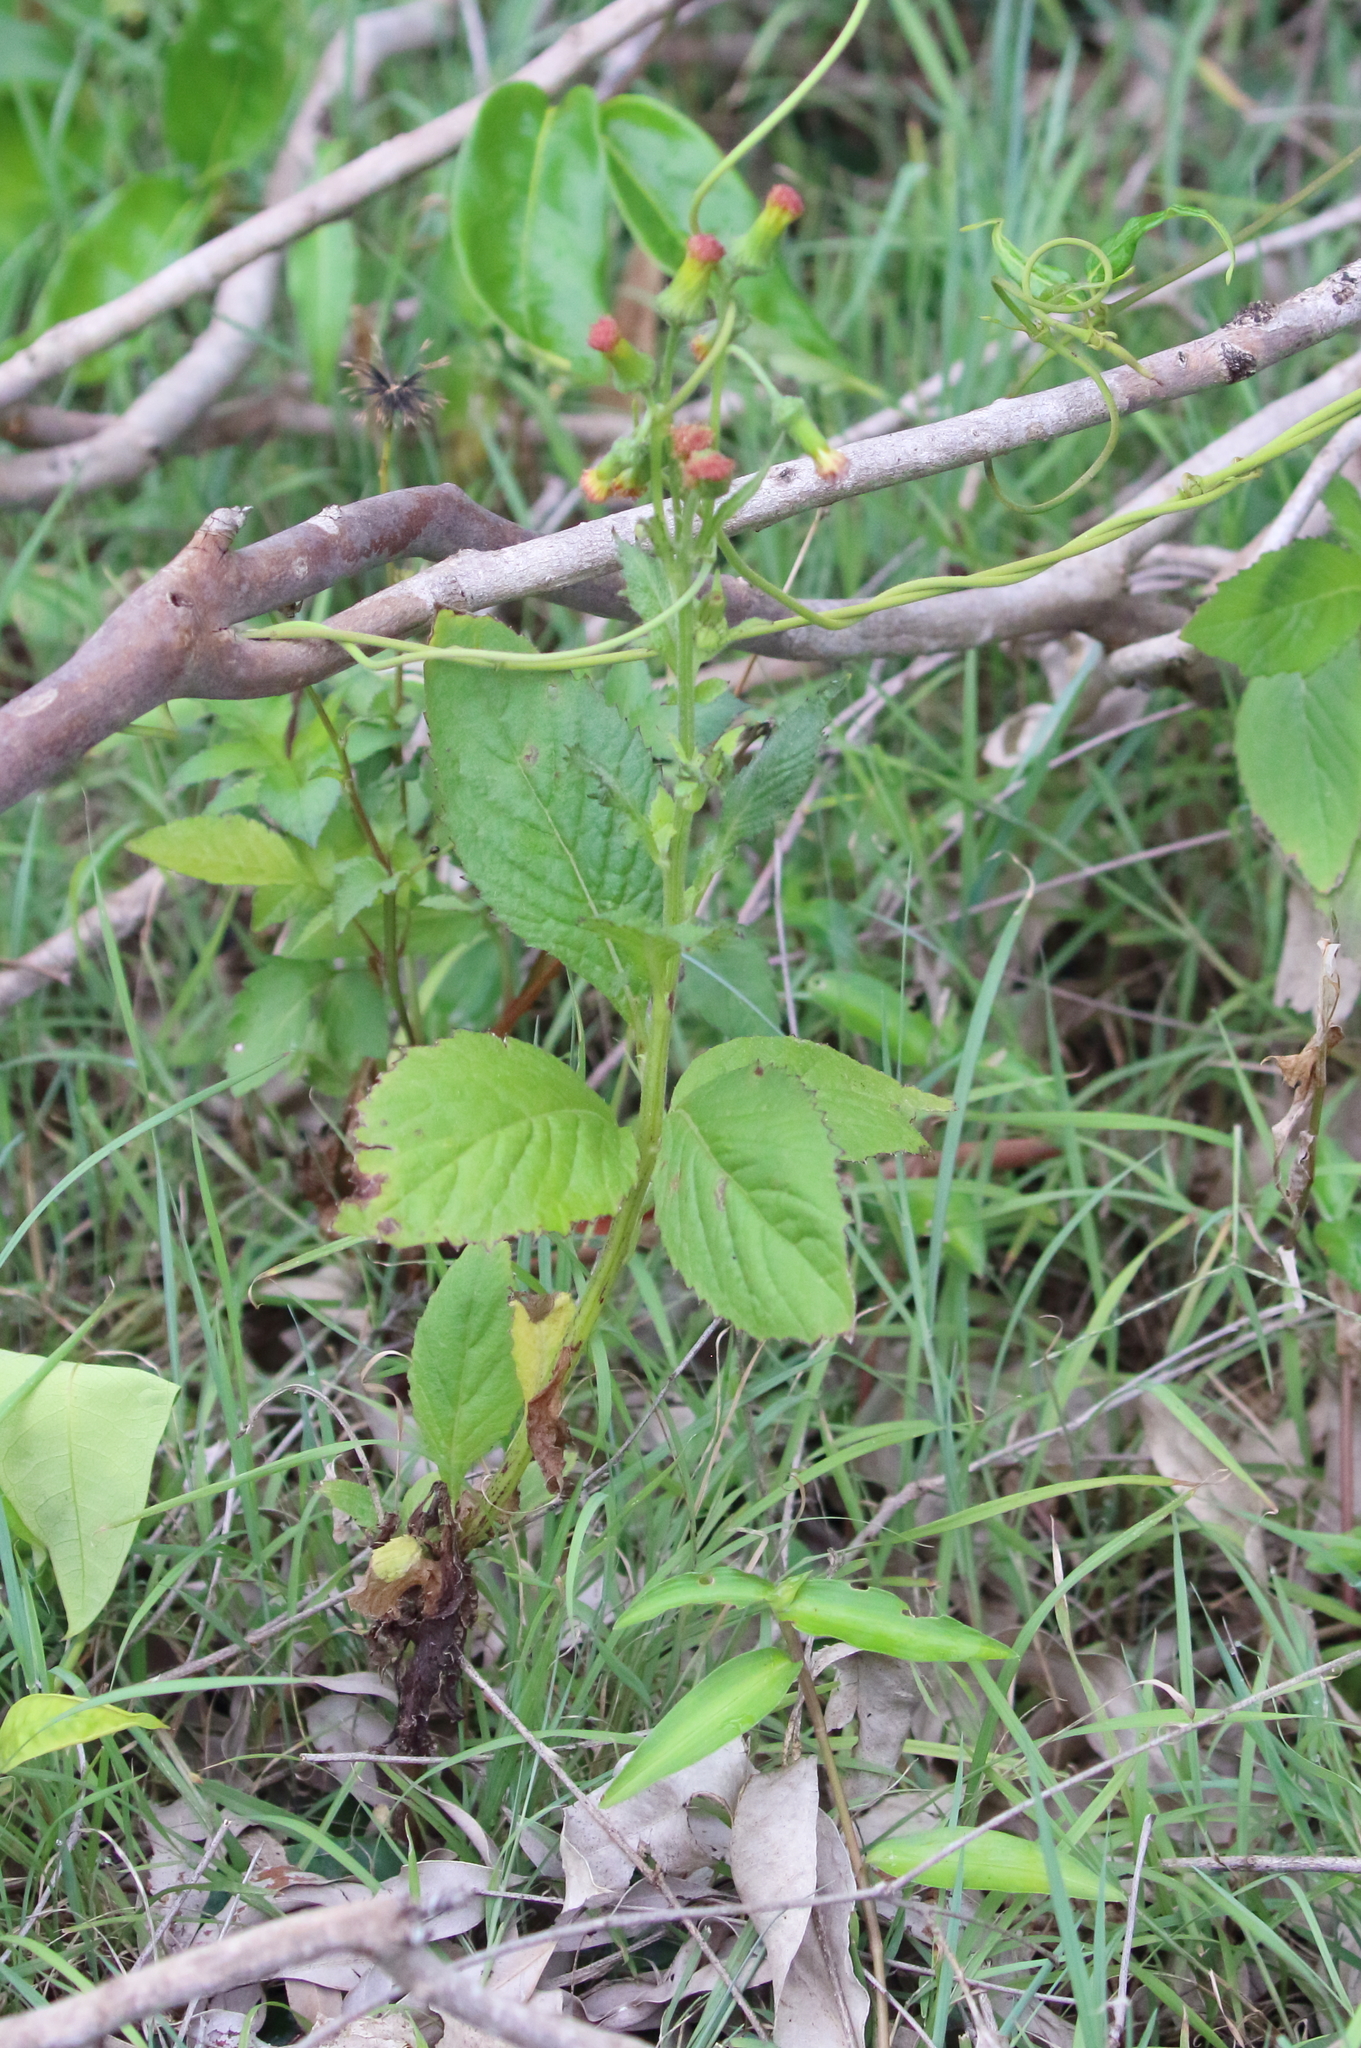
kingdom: Plantae
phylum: Tracheophyta
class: Magnoliopsida
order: Asterales
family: Asteraceae
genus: Crassocephalum
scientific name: Crassocephalum crepidioides
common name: Redflower ragleaf
